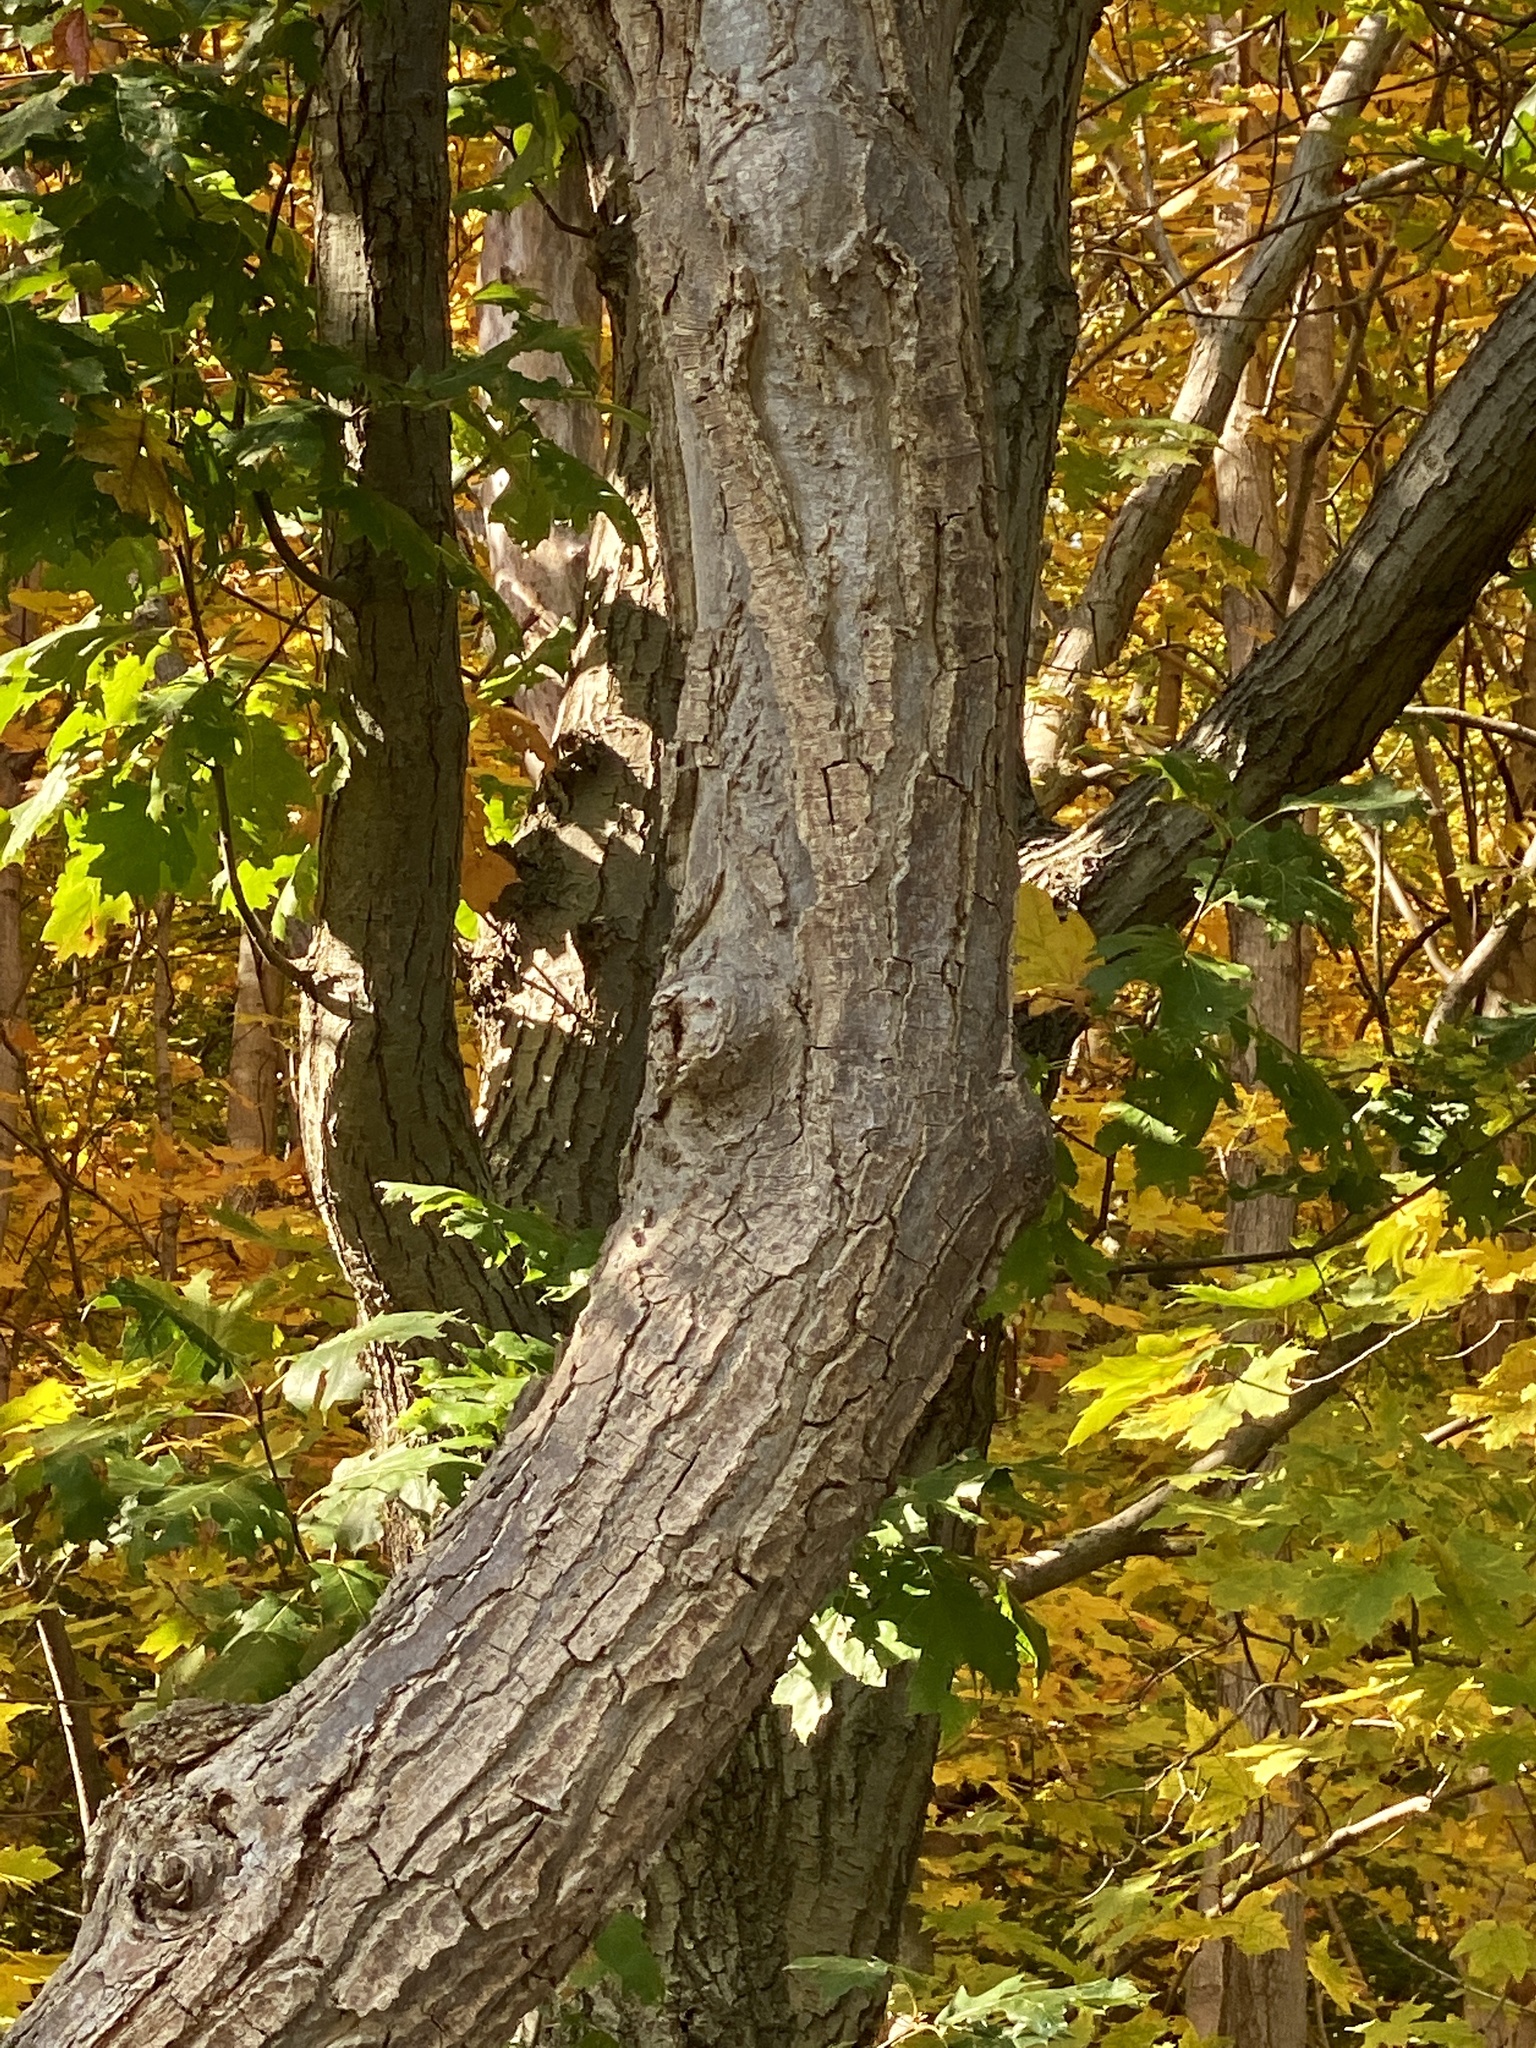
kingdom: Plantae
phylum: Tracheophyta
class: Magnoliopsida
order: Rosales
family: Cannabaceae
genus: Celtis
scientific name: Celtis occidentalis
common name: Common hackberry
